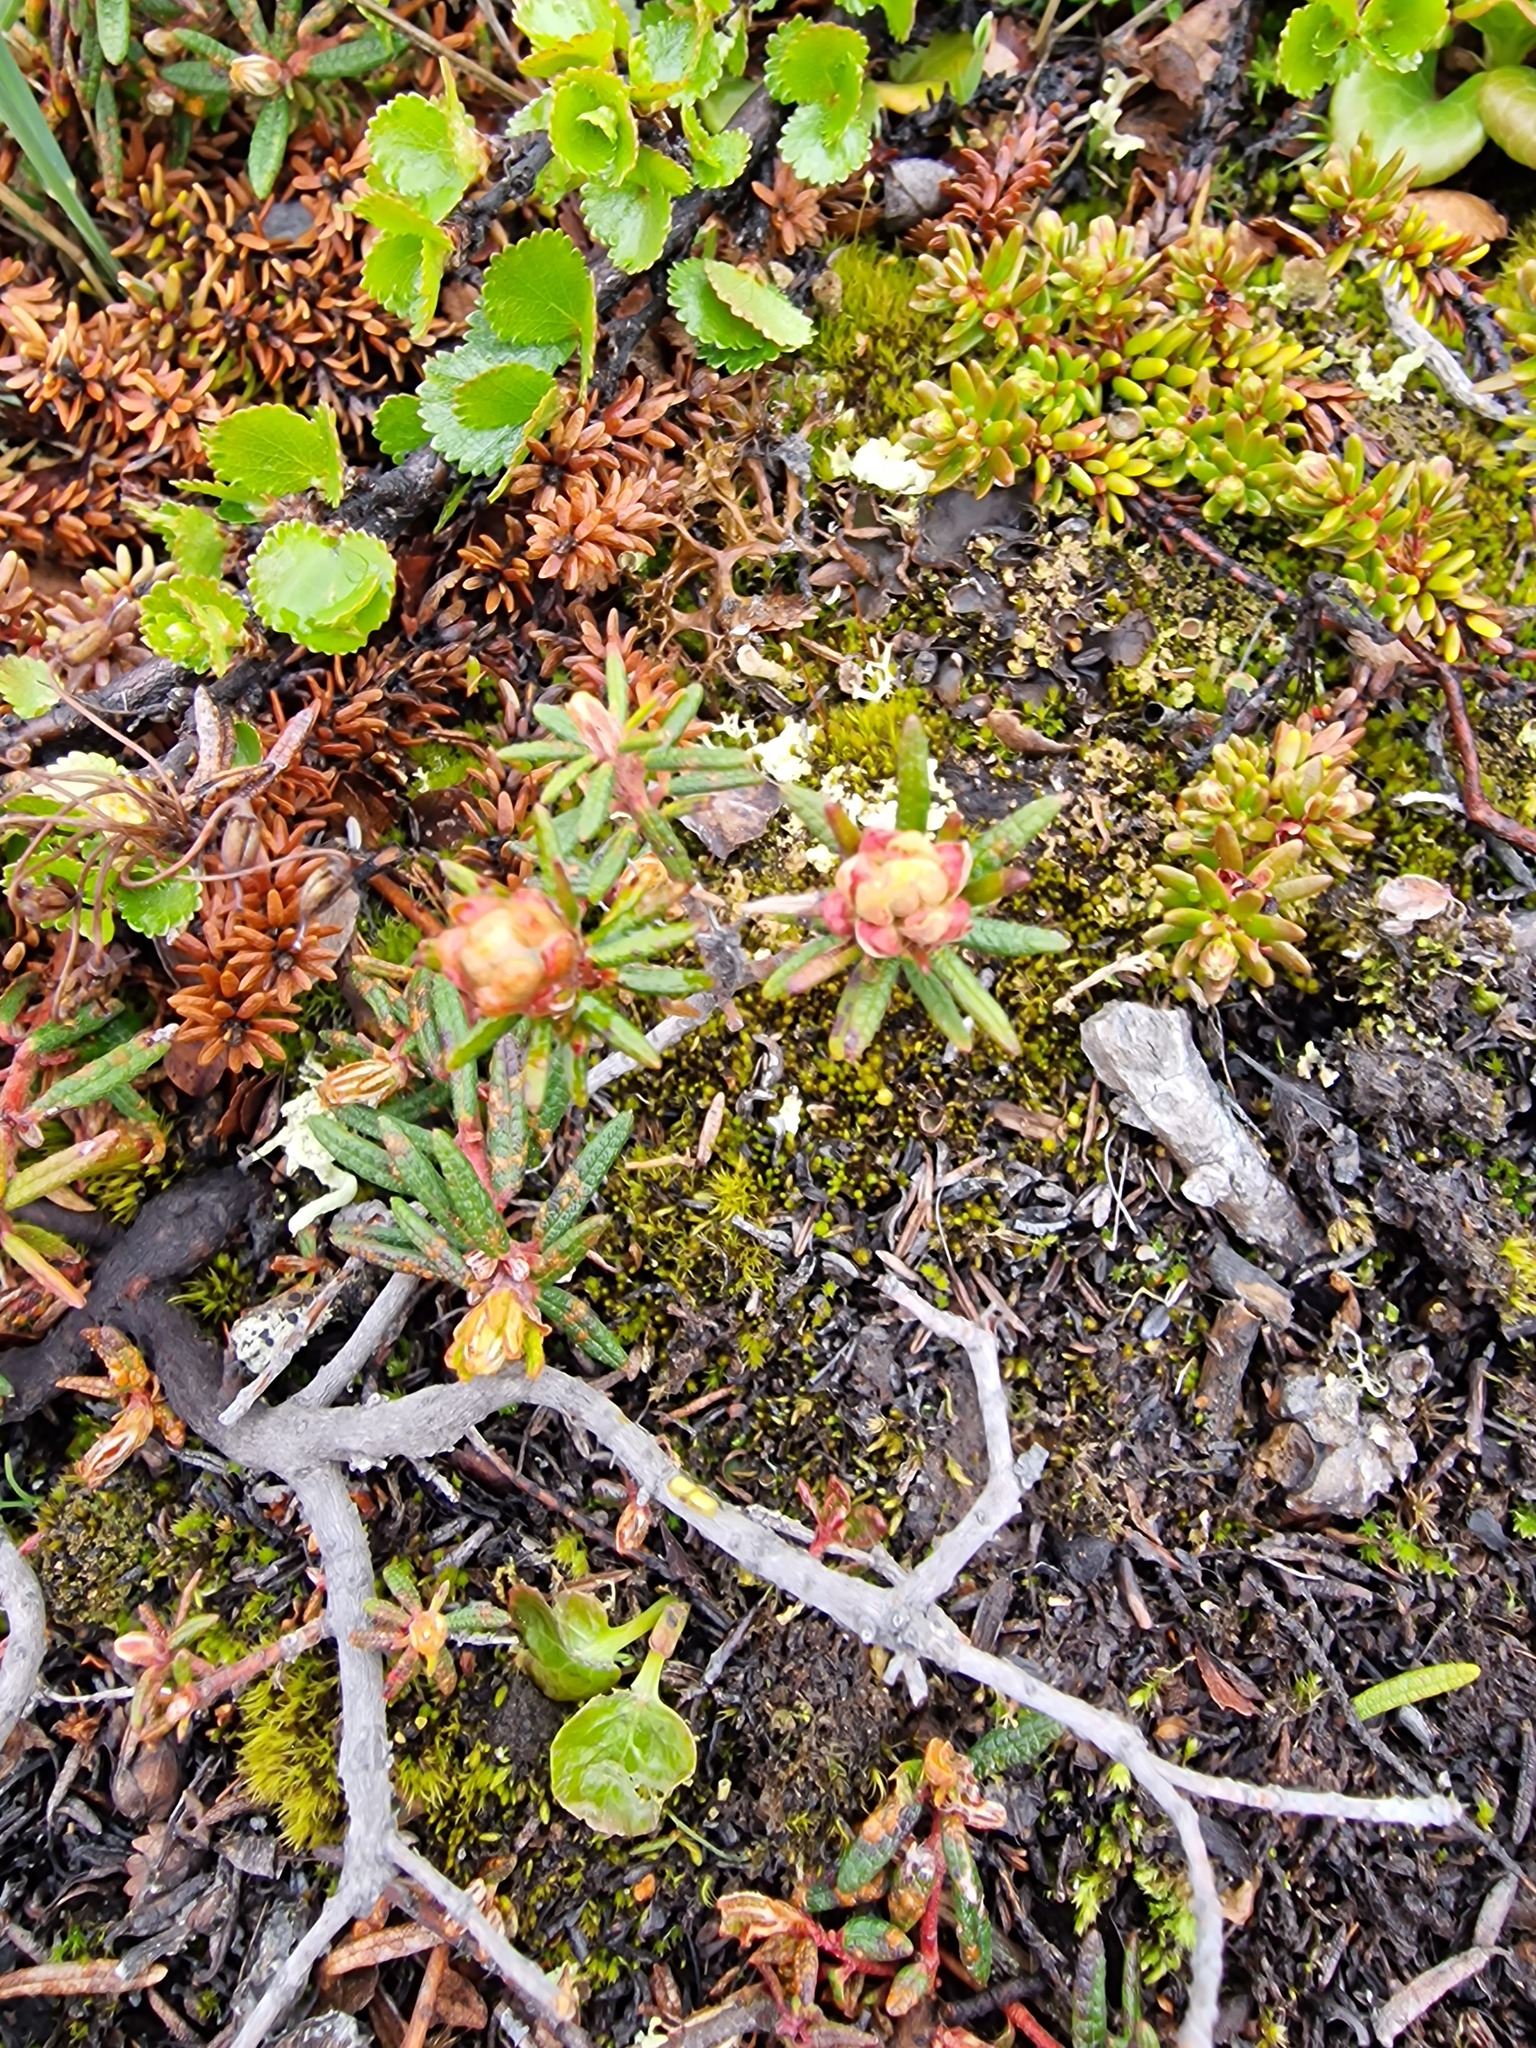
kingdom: Plantae
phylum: Tracheophyta
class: Magnoliopsida
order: Ericales
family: Ericaceae
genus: Rhododendron
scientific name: Rhododendron tomentosum
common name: Marsh labrador tea
